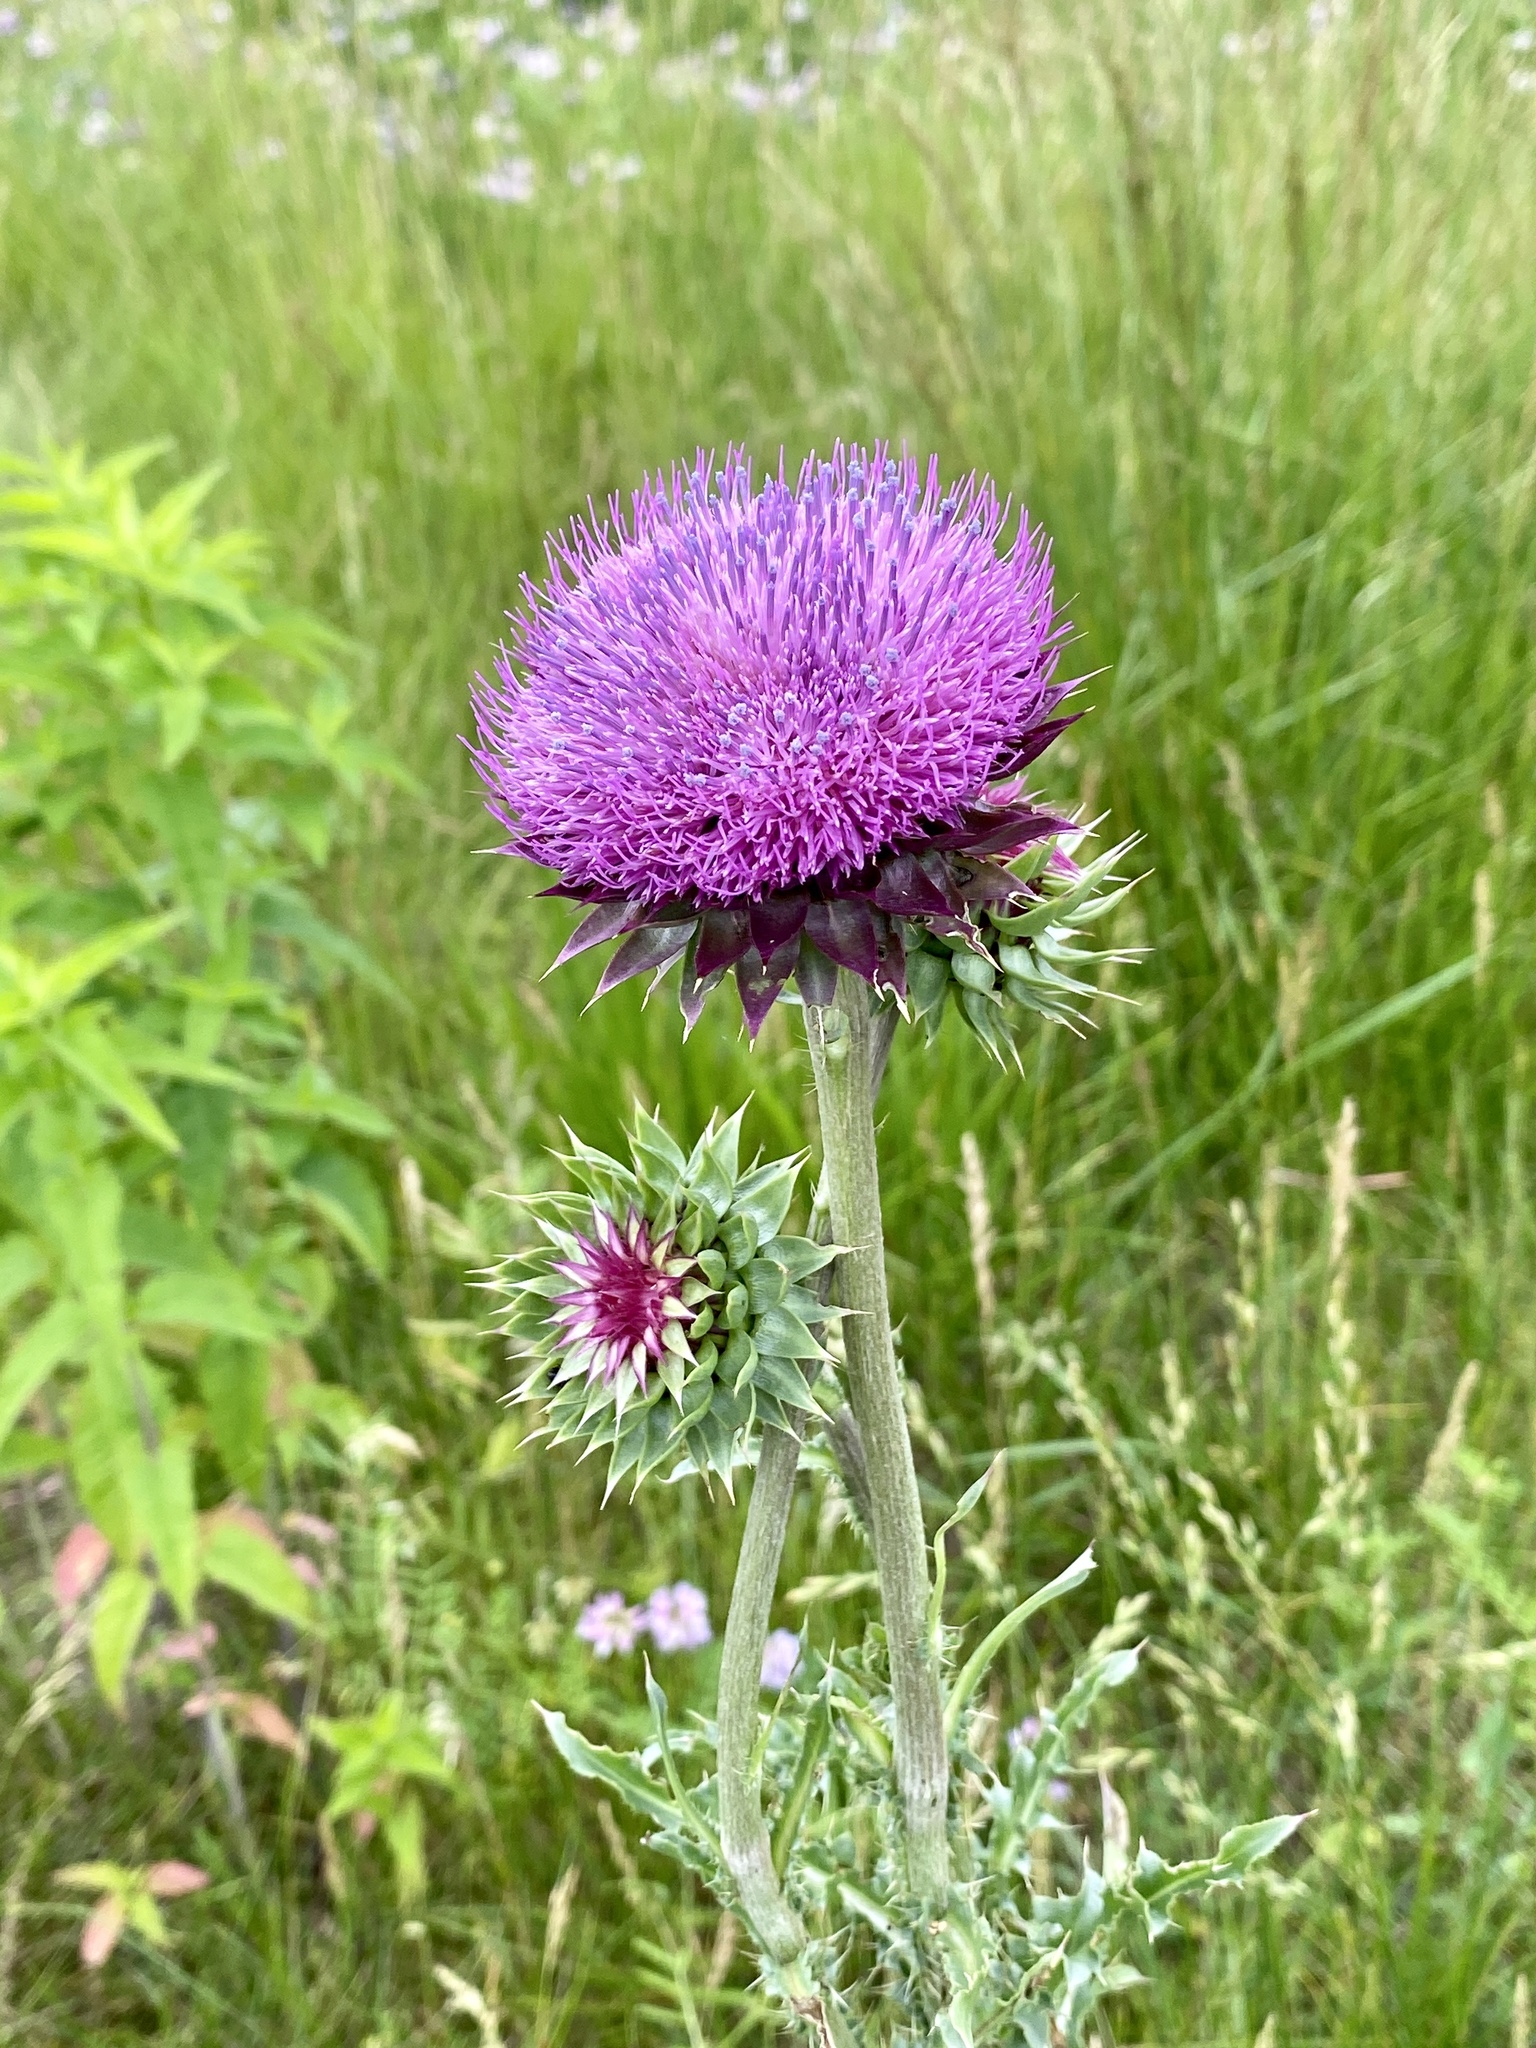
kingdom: Plantae
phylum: Tracheophyta
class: Magnoliopsida
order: Asterales
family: Asteraceae
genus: Carduus
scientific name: Carduus nutans
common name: Musk thistle
